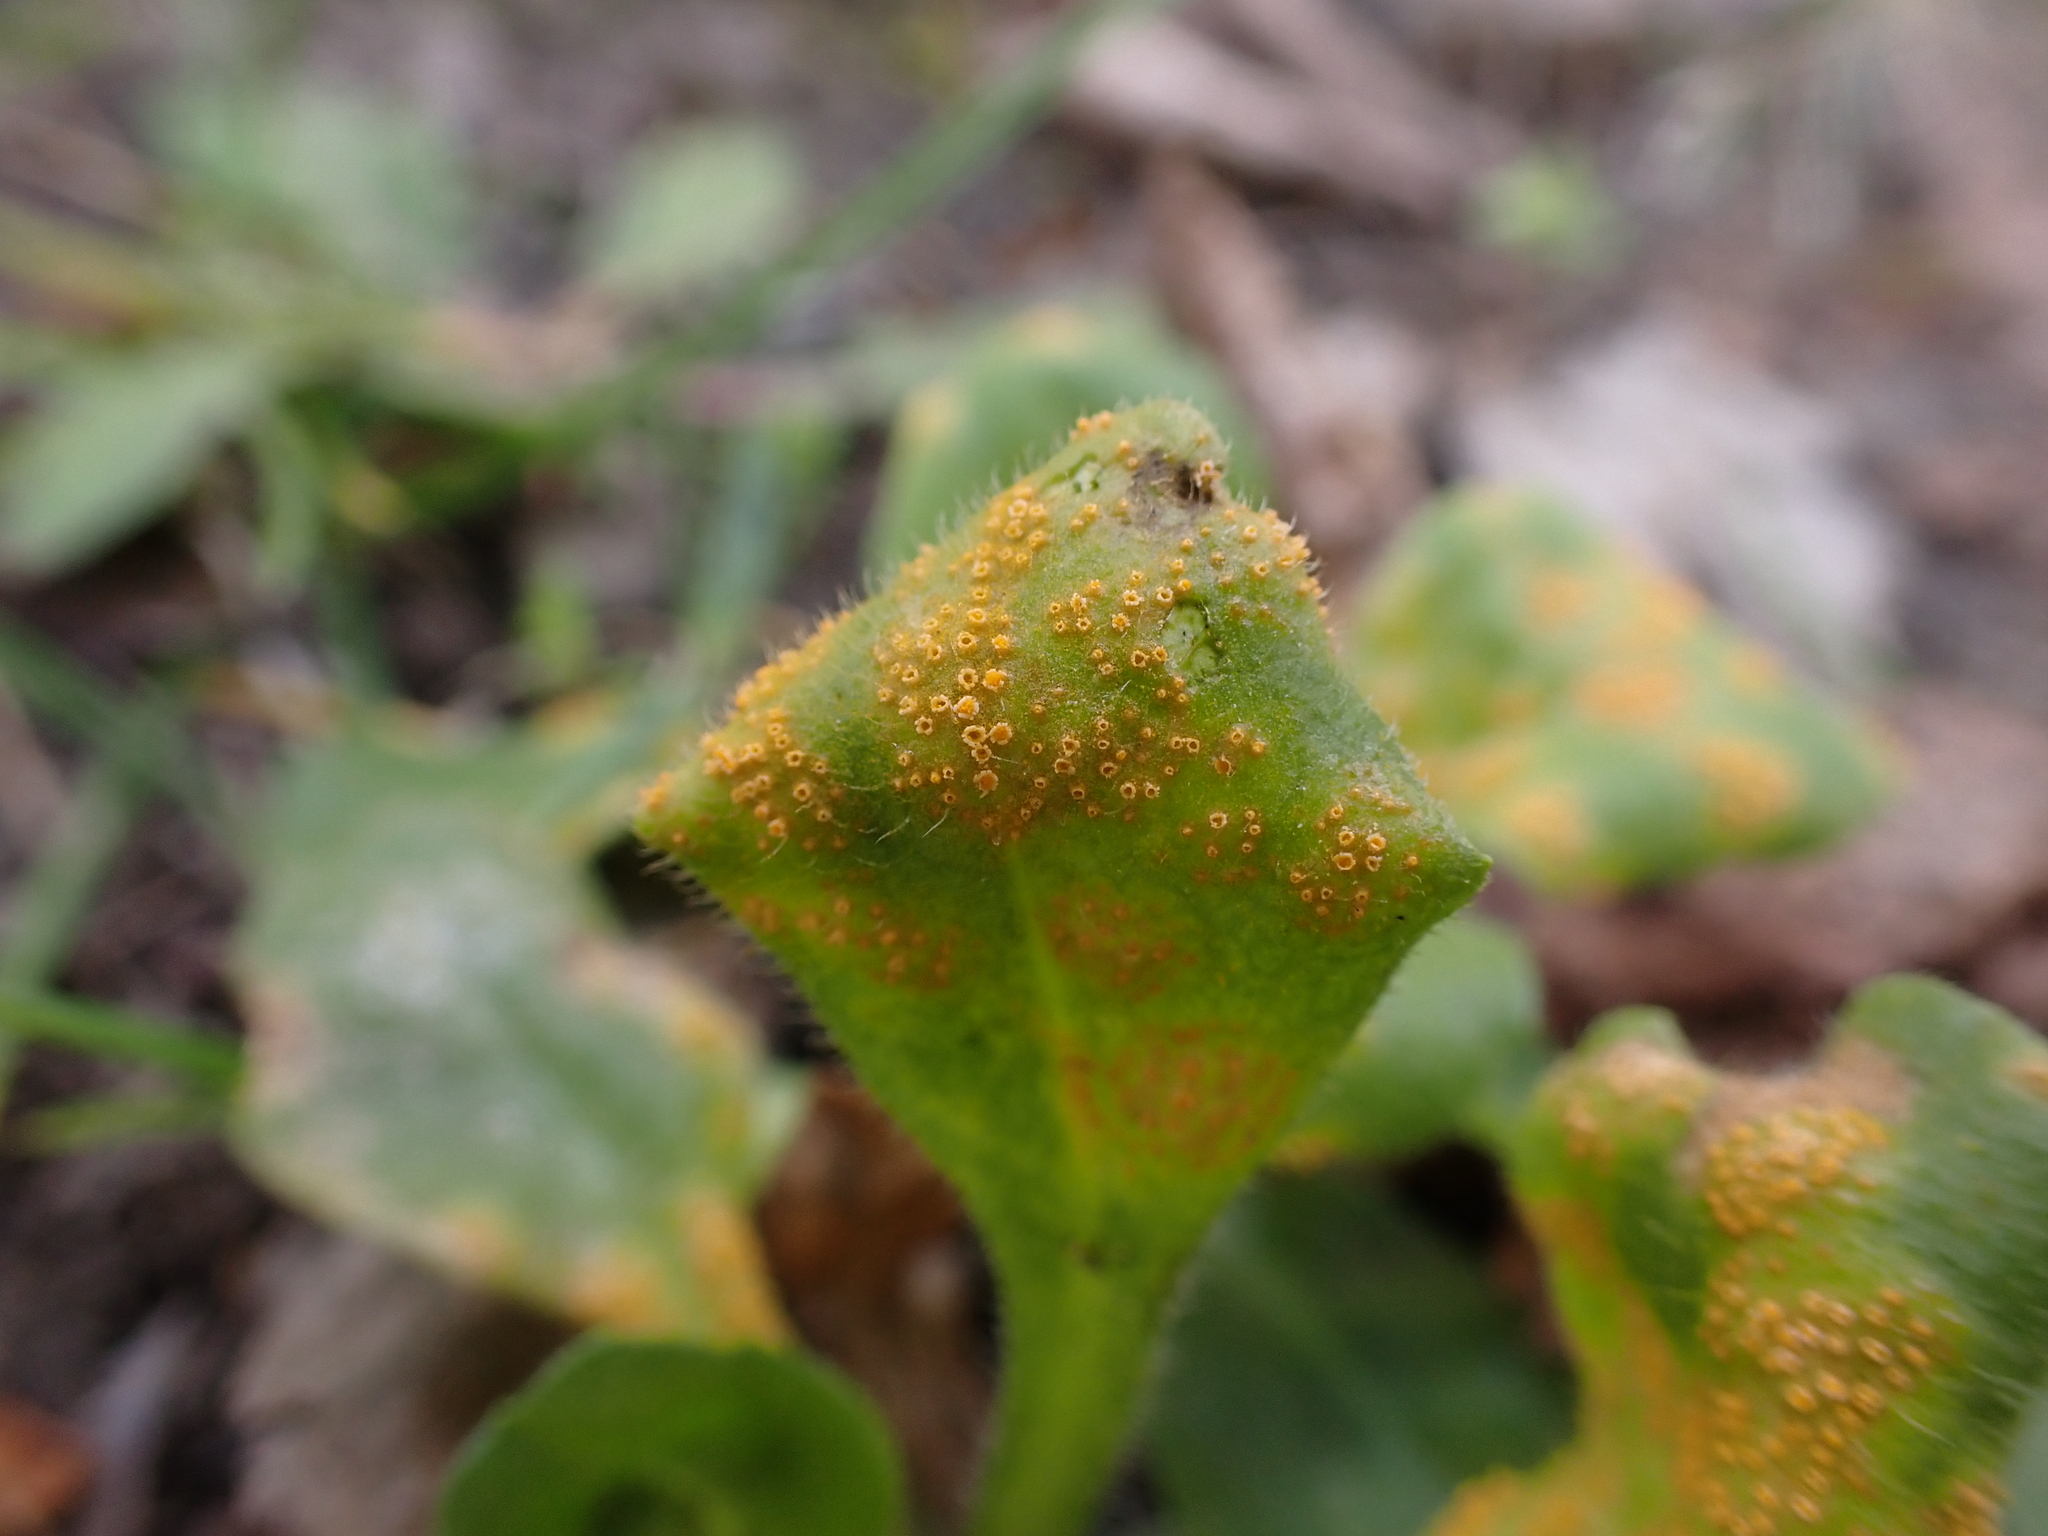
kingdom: Fungi
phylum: Basidiomycota
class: Pucciniomycetes
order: Pucciniales
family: Pucciniaceae
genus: Puccinia
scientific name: Puccinia lagenophorae
